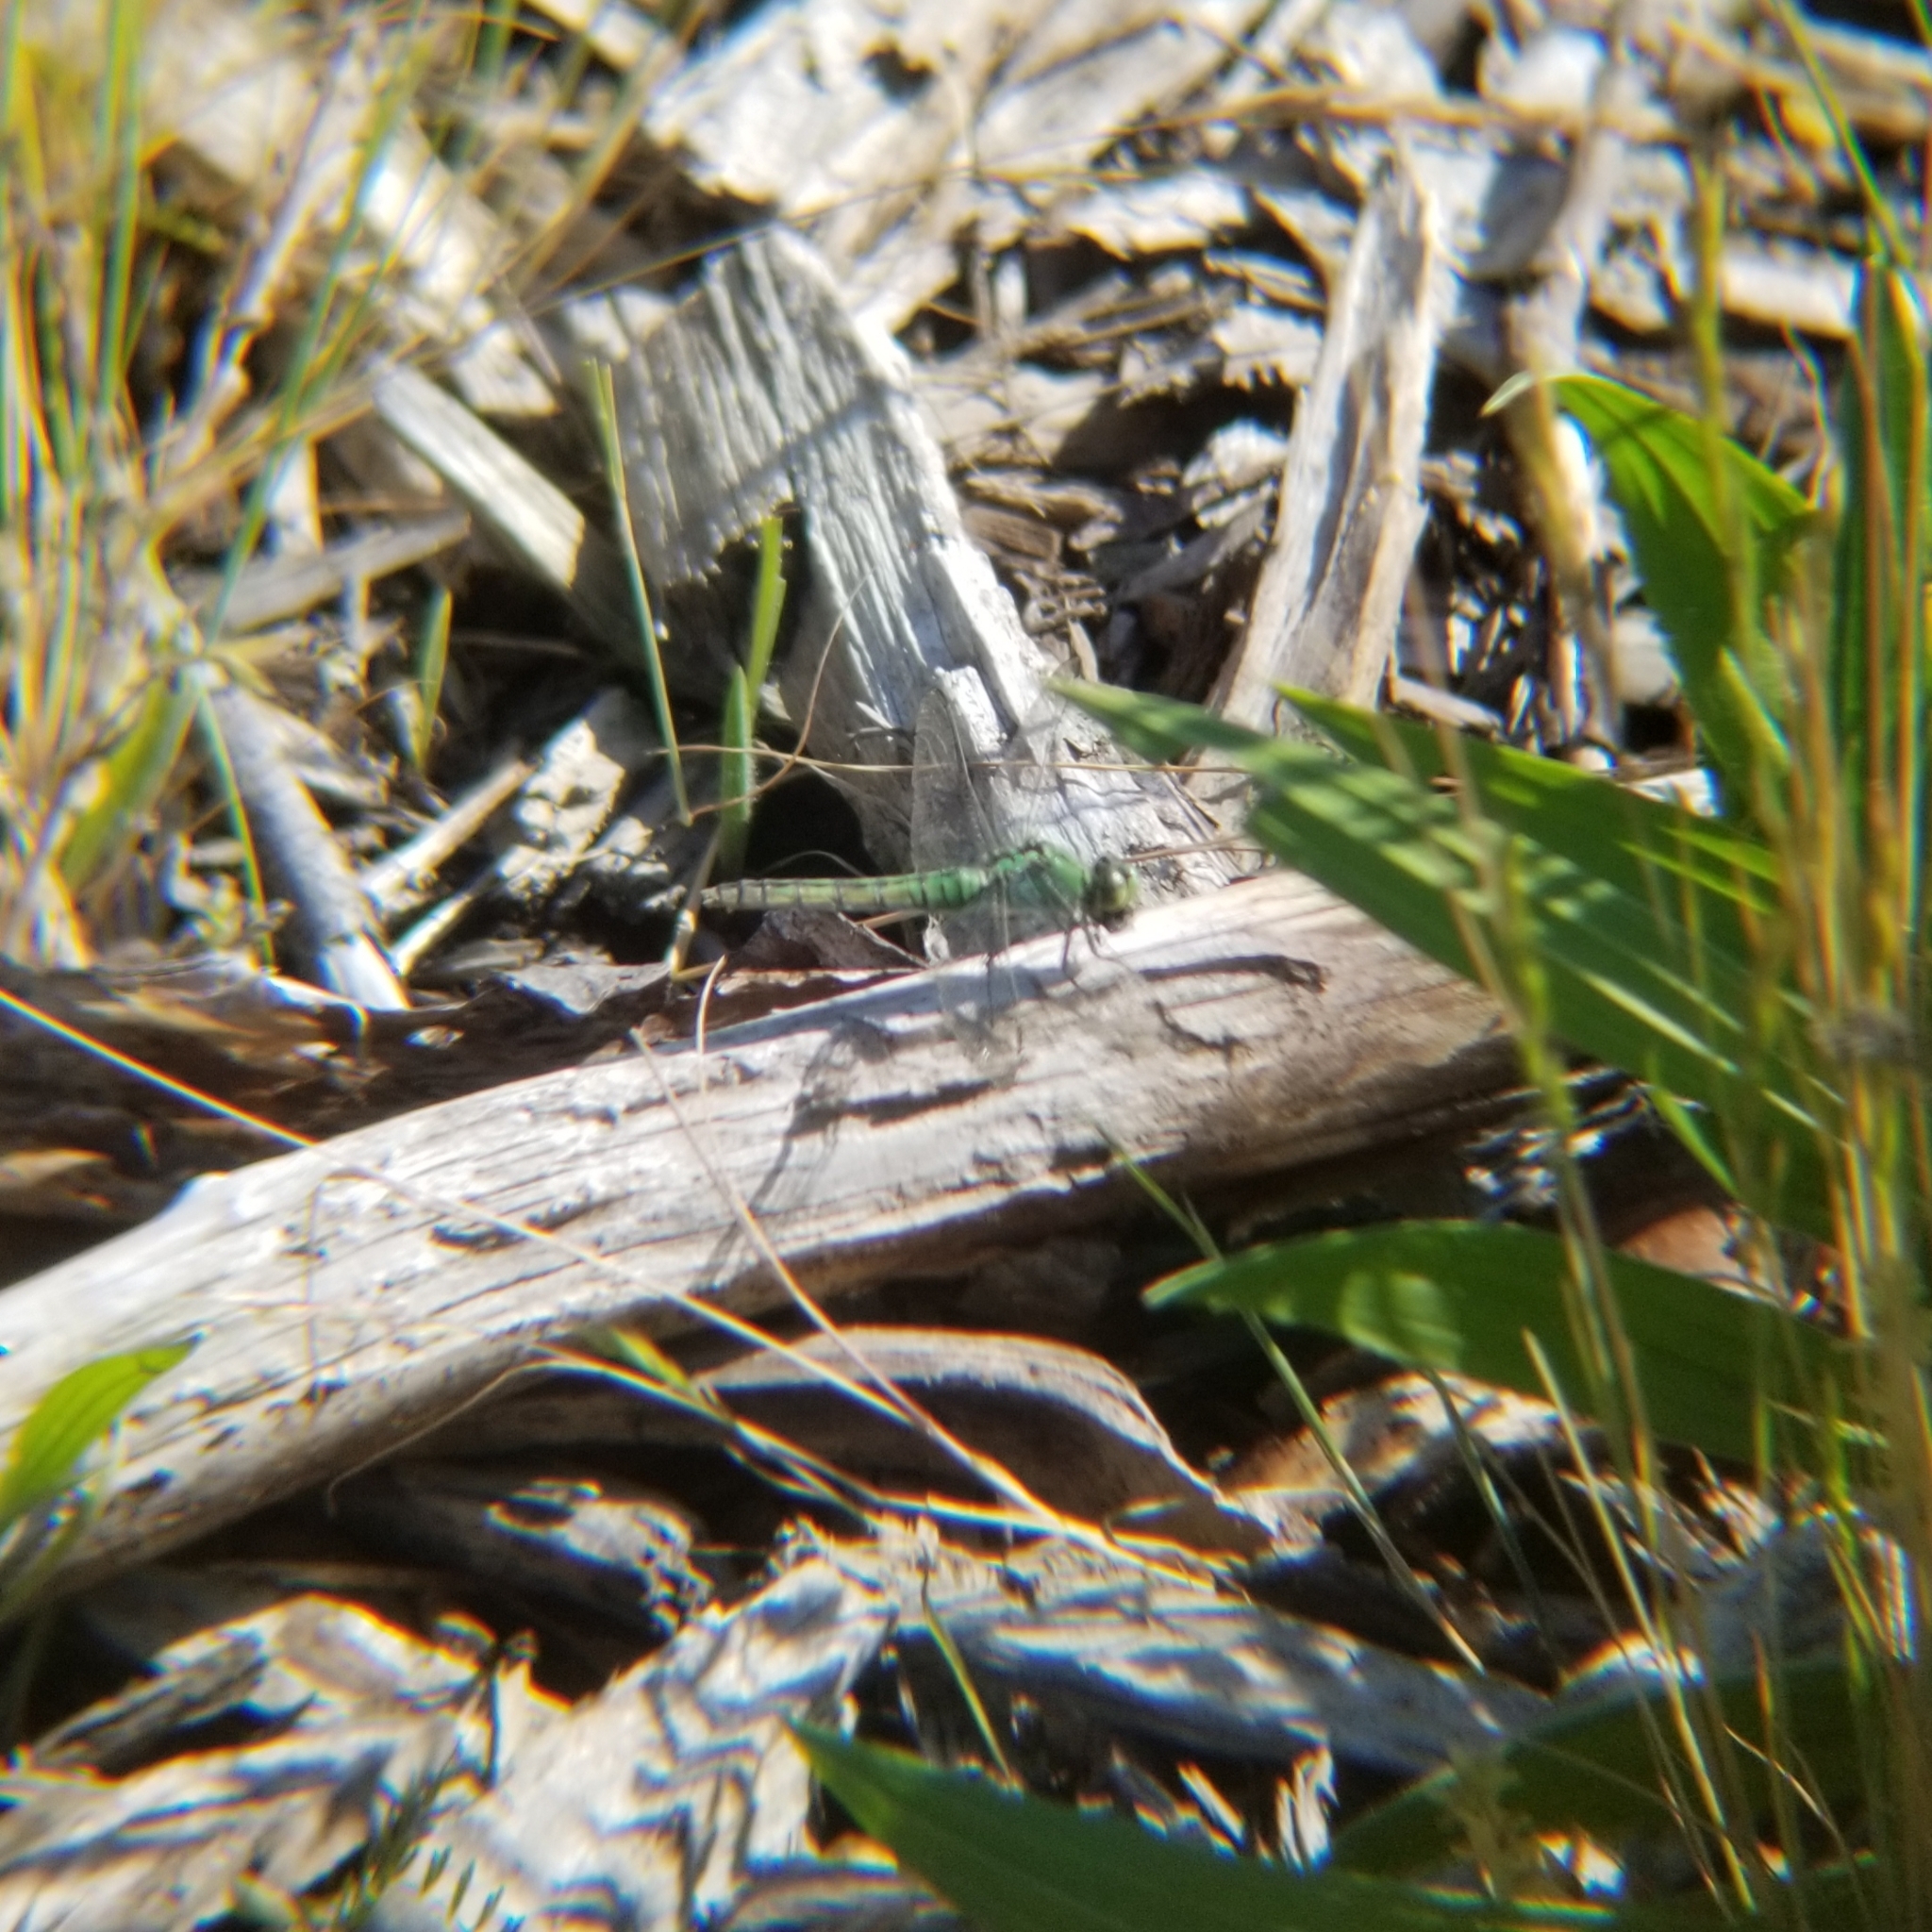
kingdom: Animalia
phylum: Arthropoda
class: Insecta
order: Odonata
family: Libellulidae
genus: Erythemis
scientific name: Erythemis collocata
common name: Western pondhawk
